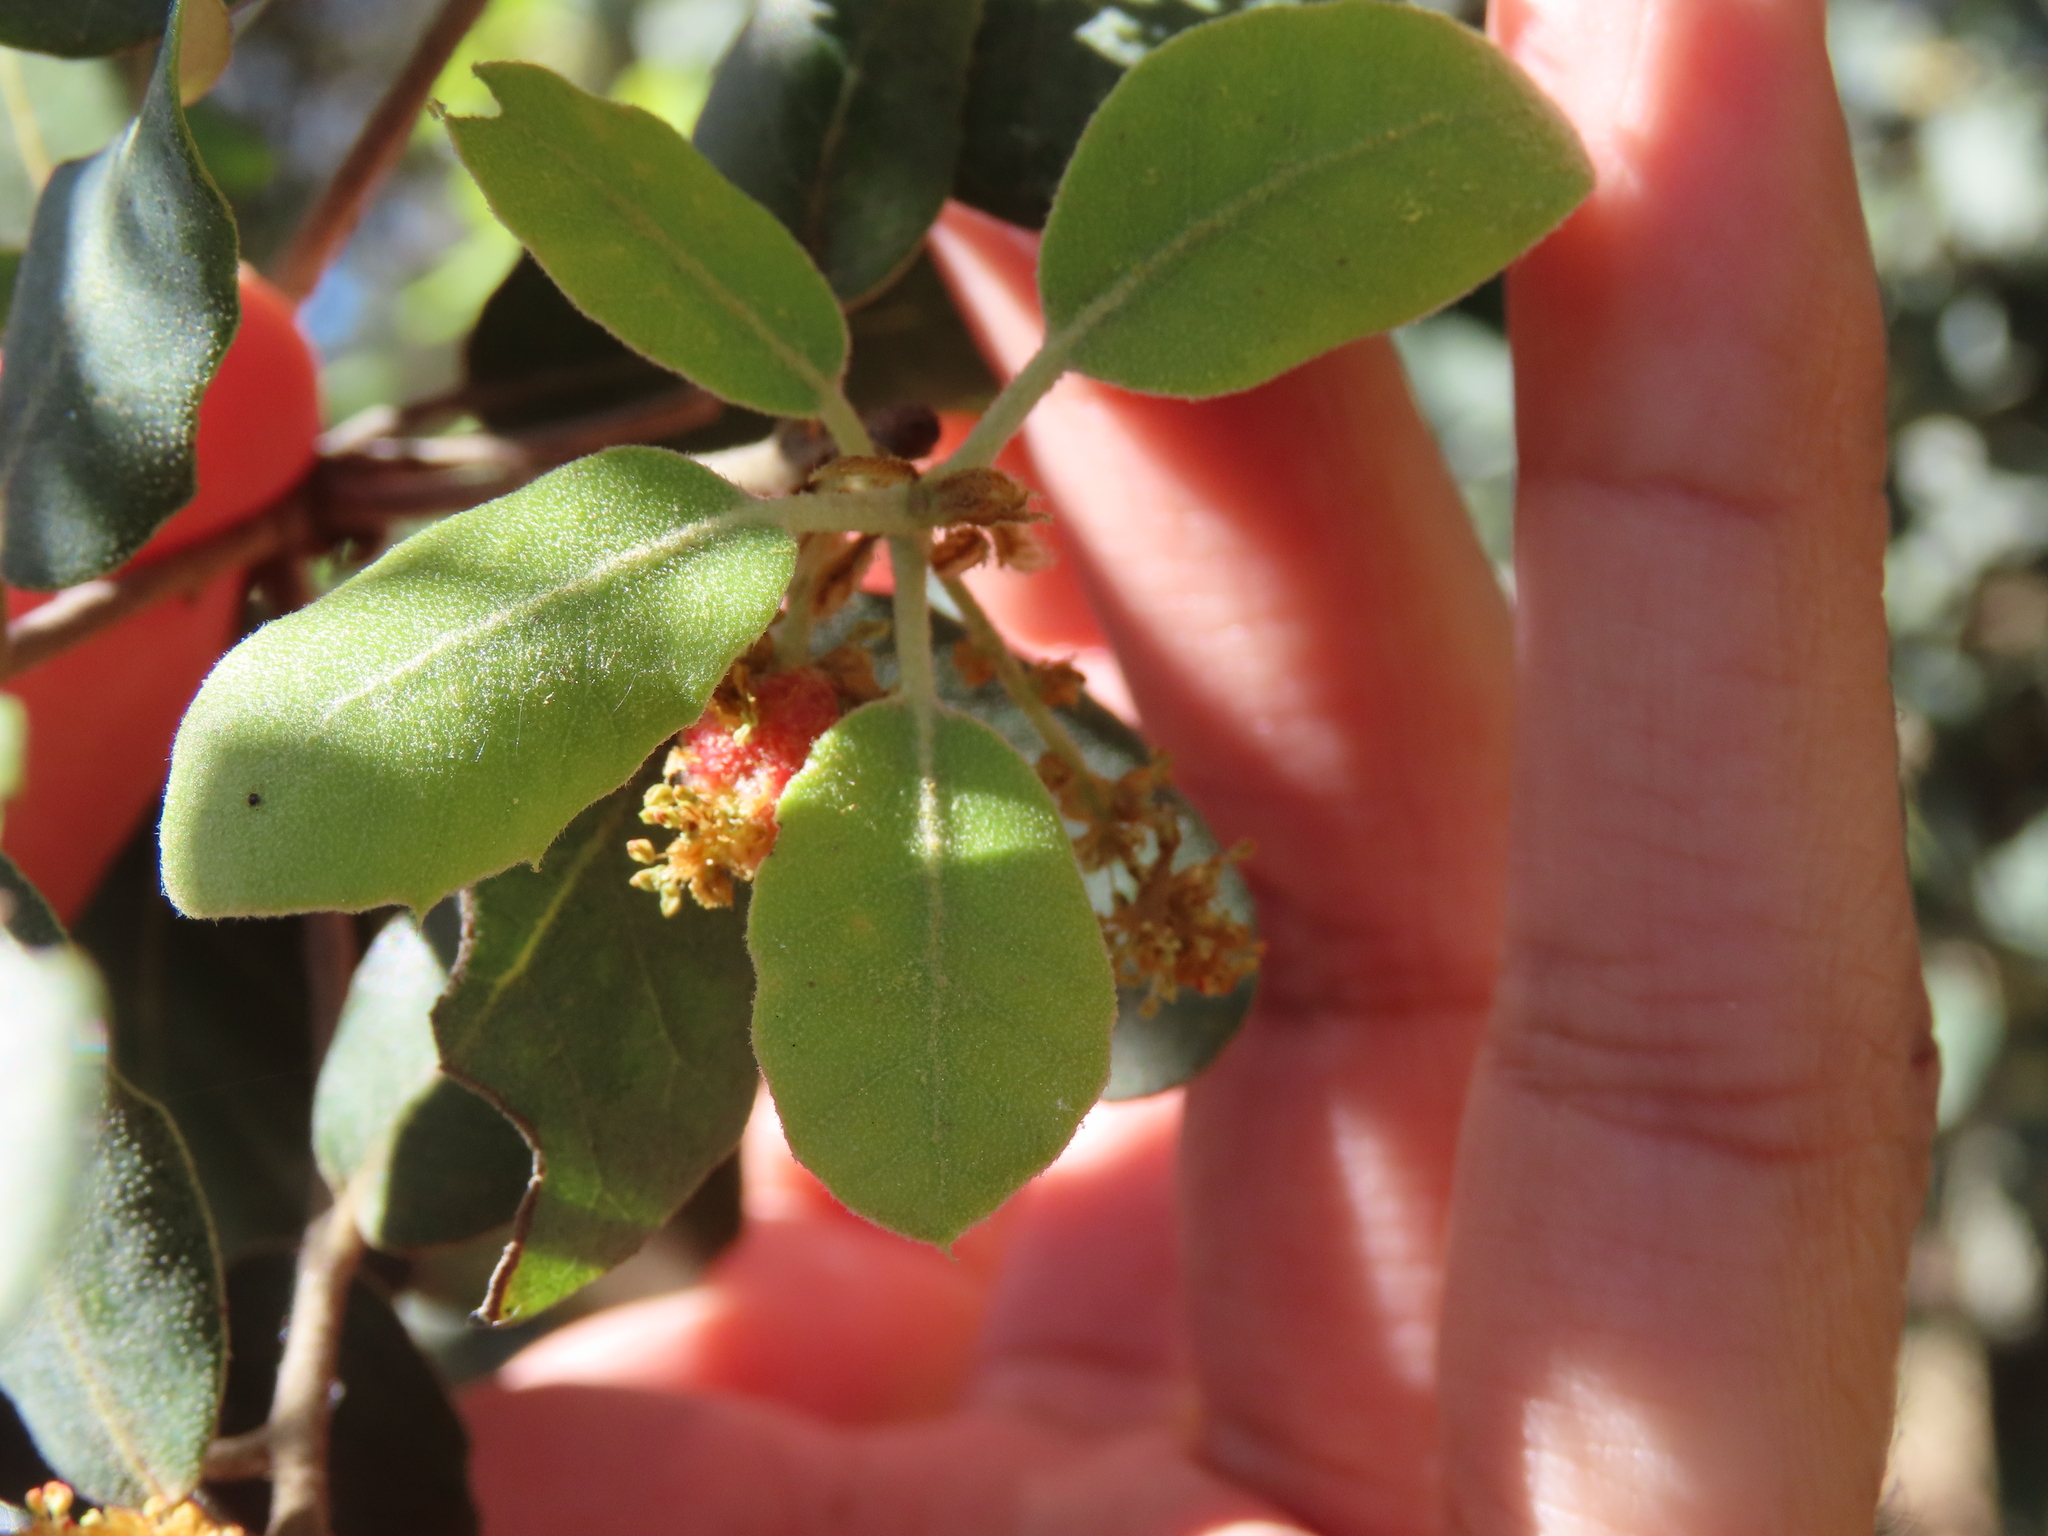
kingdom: Animalia
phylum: Arthropoda
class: Insecta
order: Hymenoptera
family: Cynipidae
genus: Plagiotrochus
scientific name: Plagiotrochus quercusilicis
